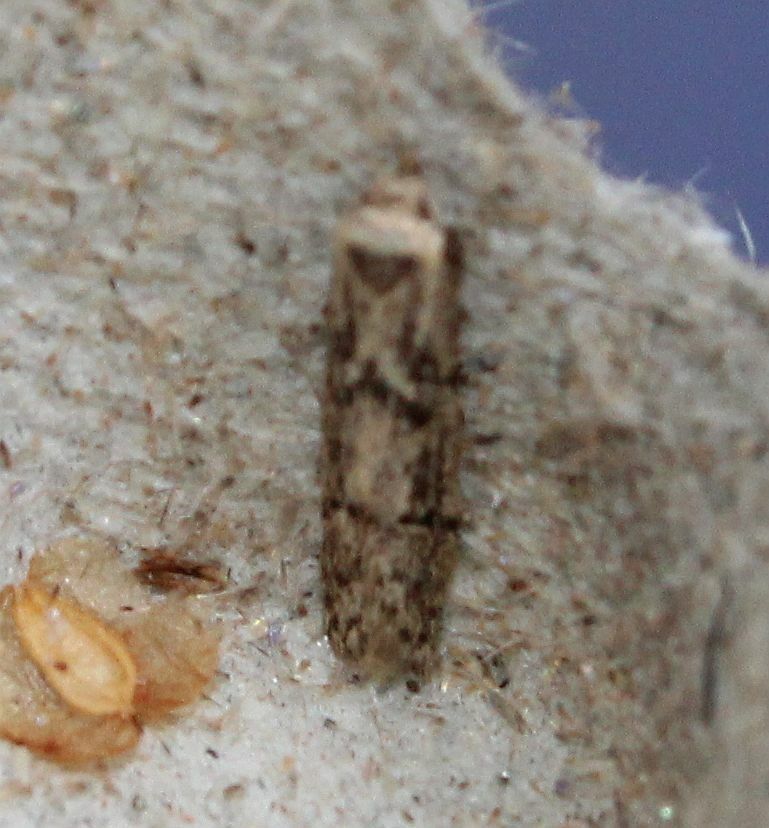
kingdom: Animalia
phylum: Arthropoda
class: Insecta
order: Lepidoptera
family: Blastobasidae
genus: Blastobasis
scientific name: Blastobasis adustella
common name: Dingy dowd
